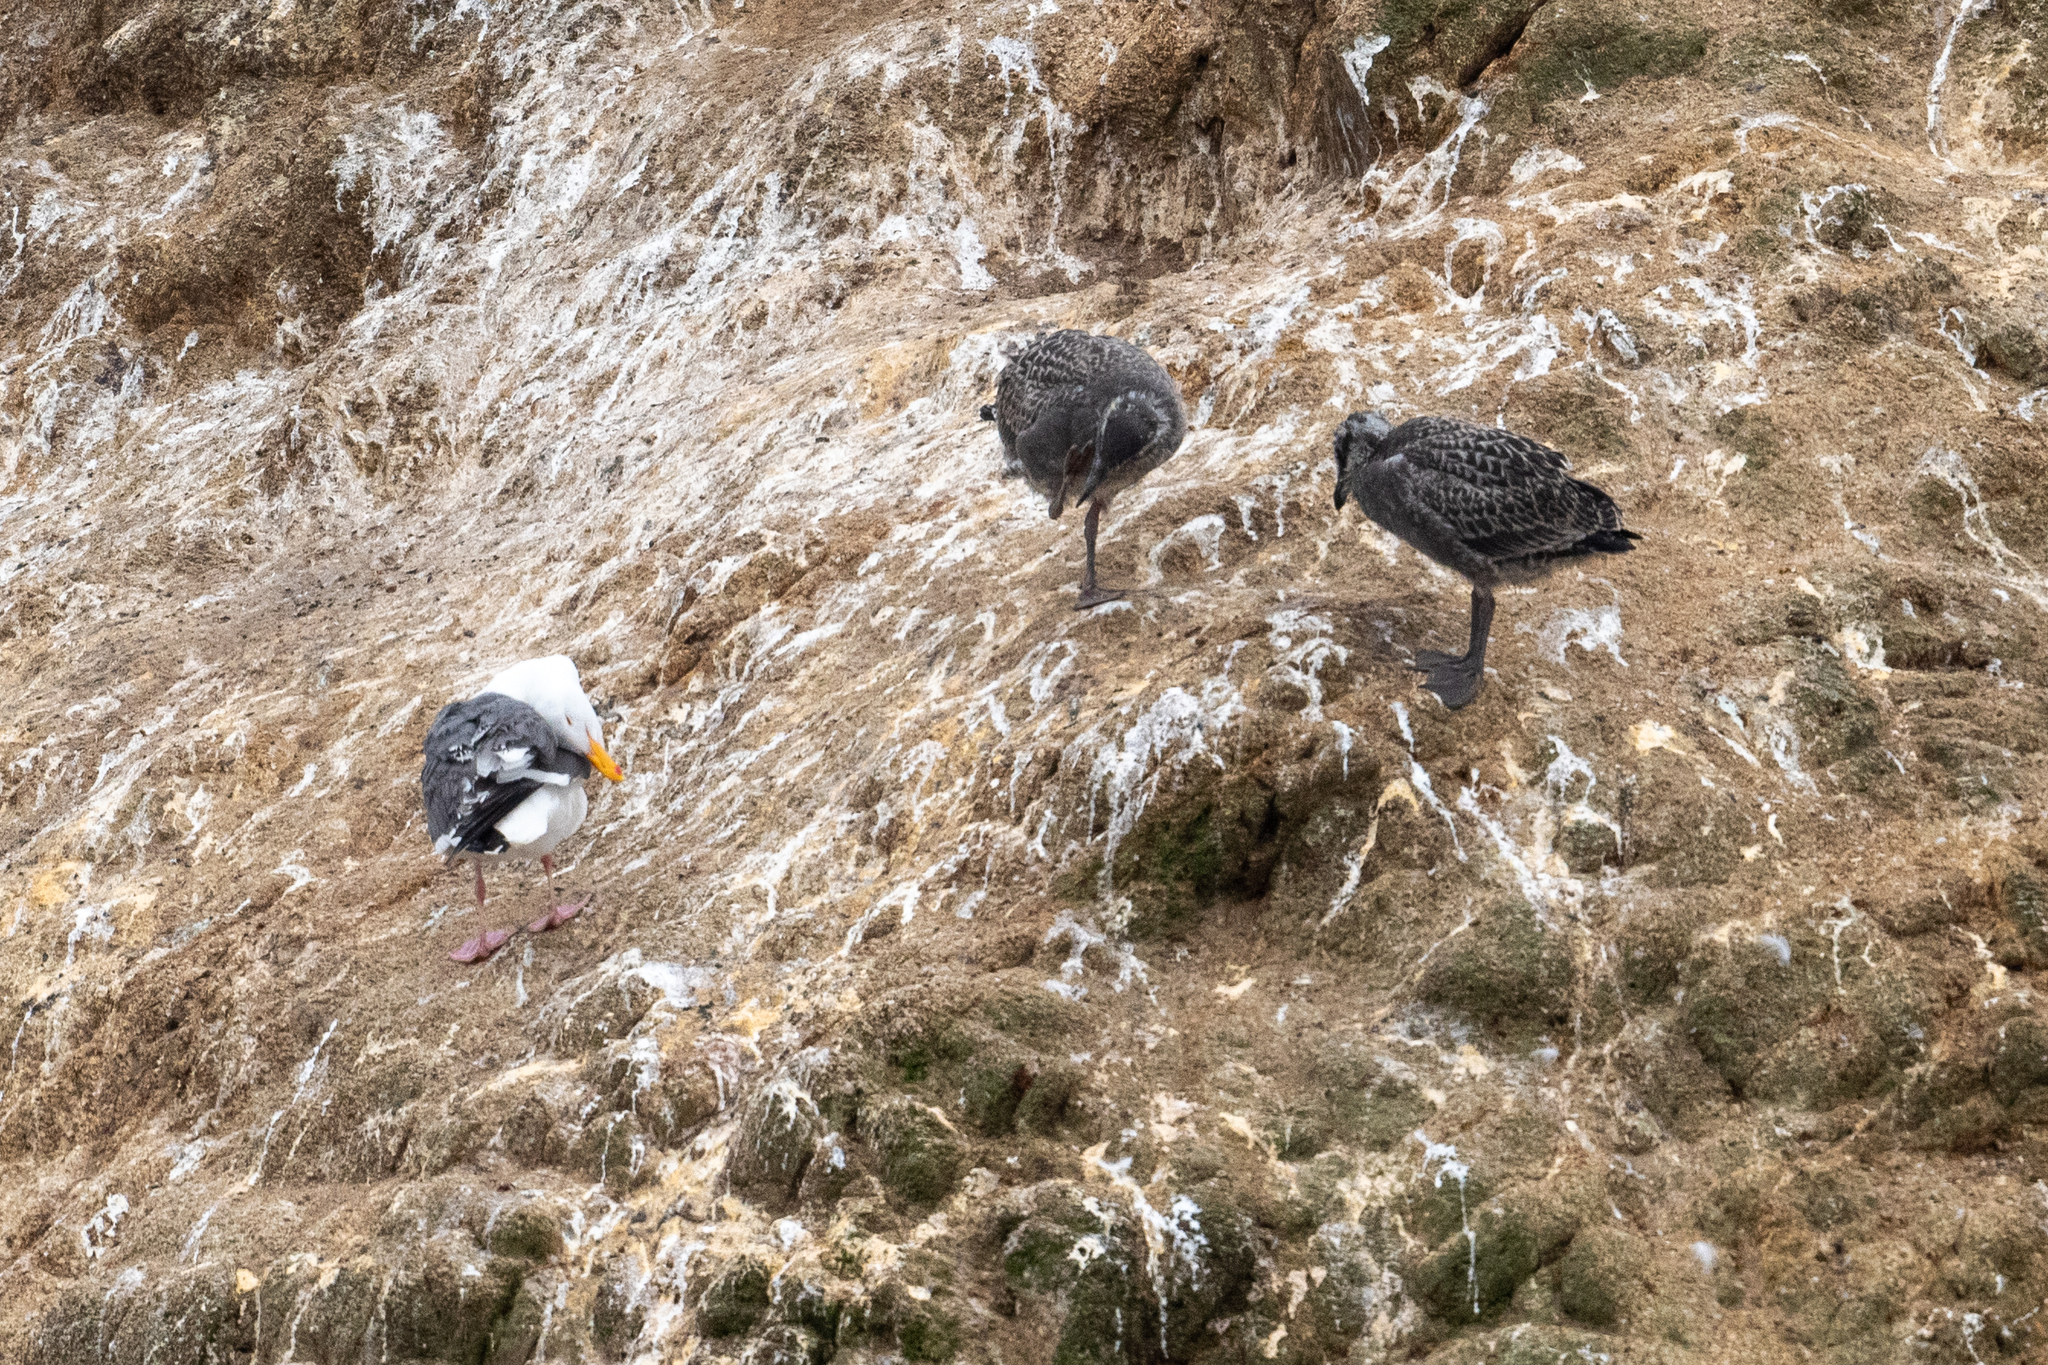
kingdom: Animalia
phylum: Chordata
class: Aves
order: Charadriiformes
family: Laridae
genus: Larus
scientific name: Larus occidentalis
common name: Western gull
